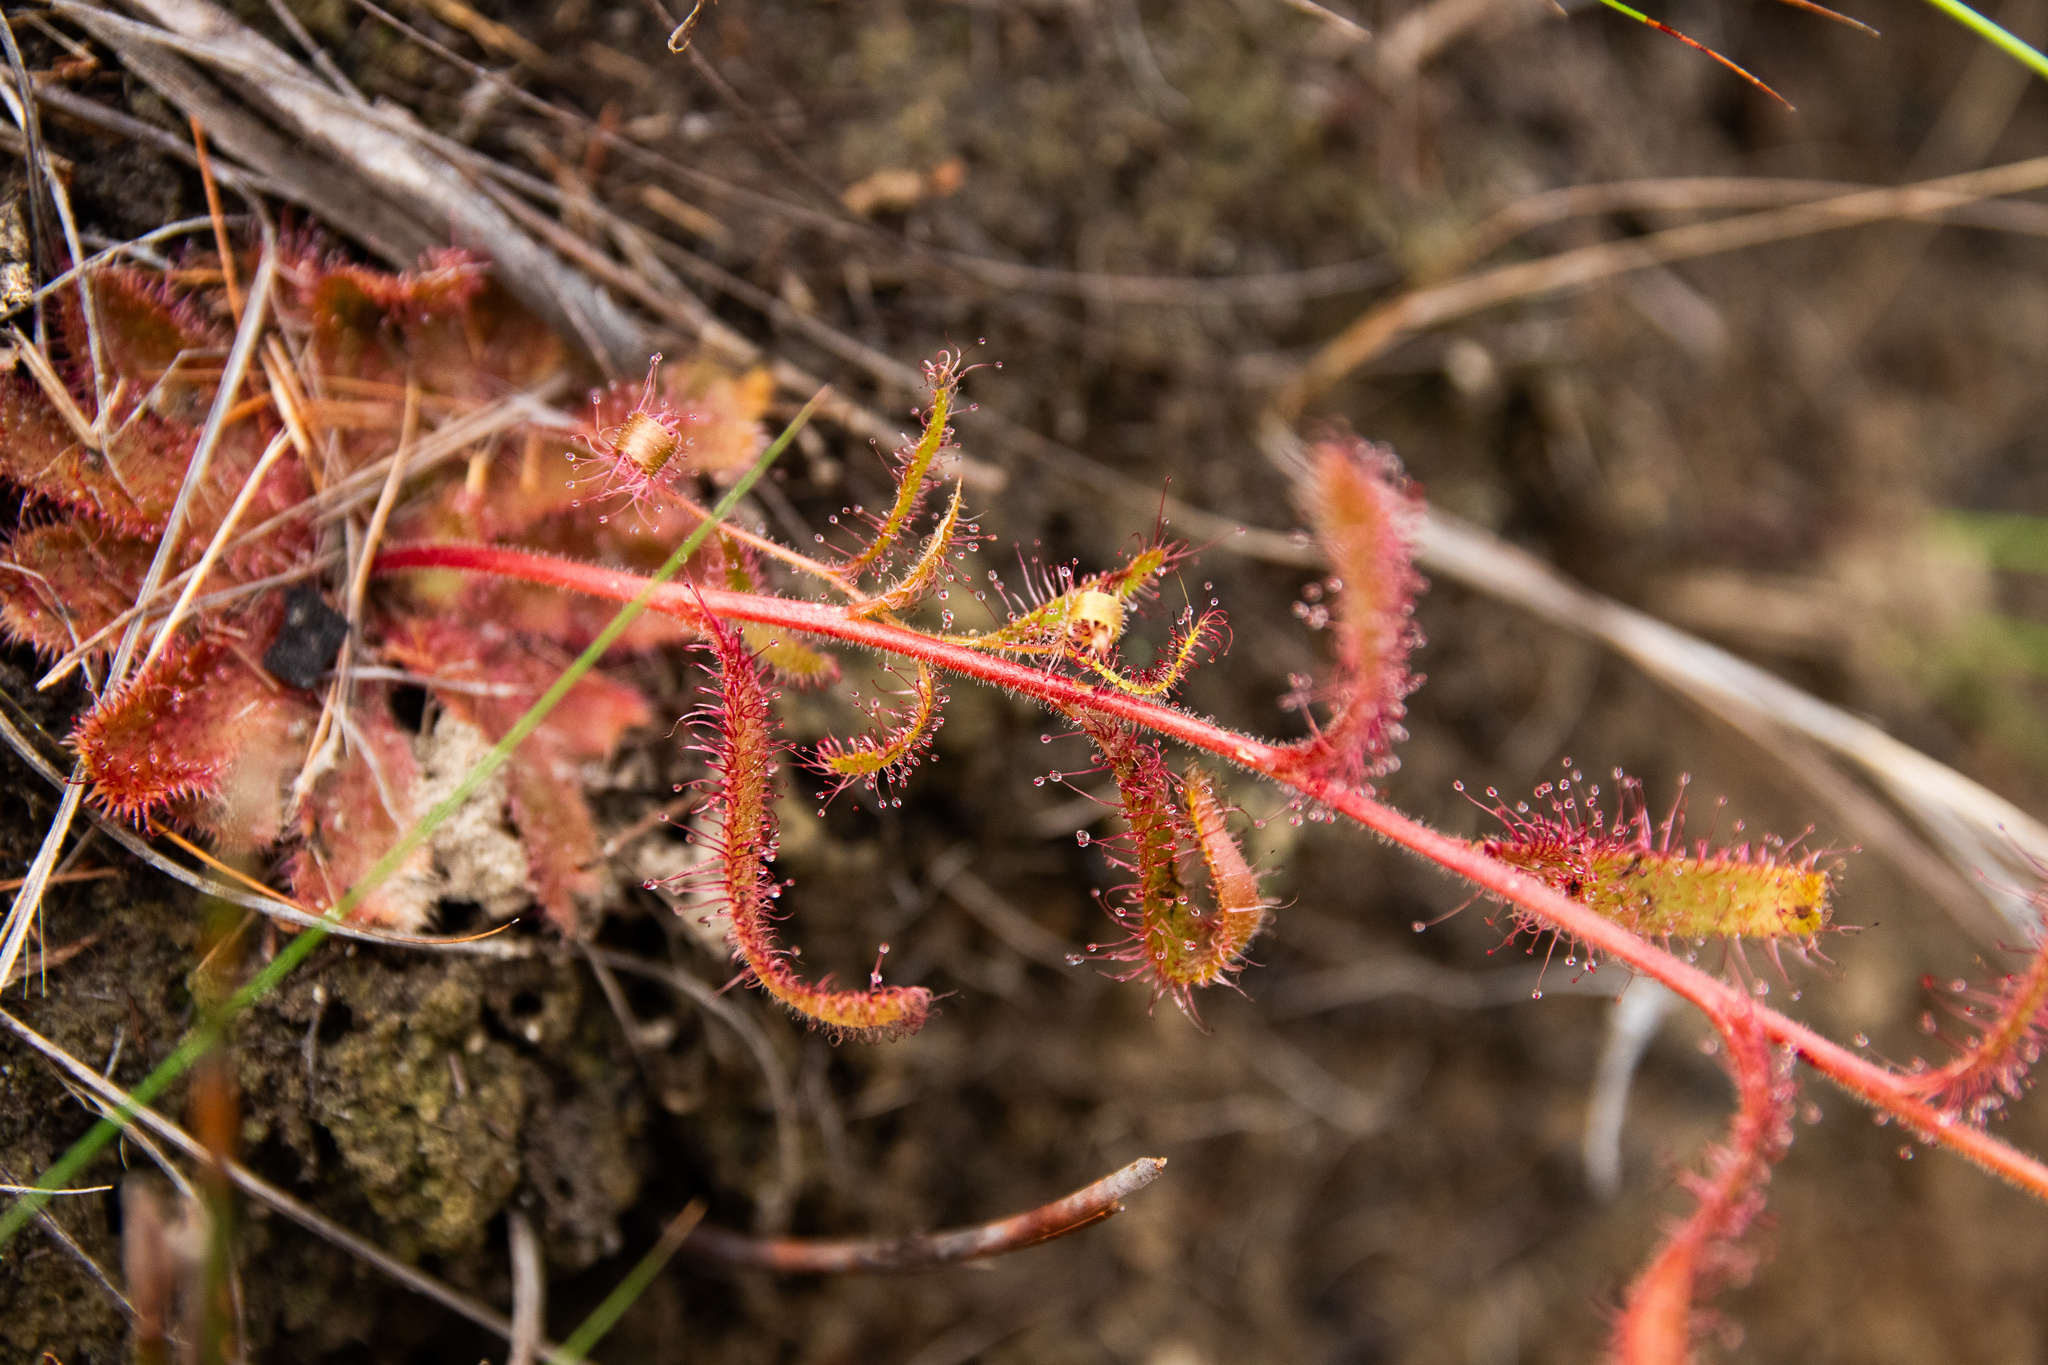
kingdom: Plantae
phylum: Tracheophyta
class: Magnoliopsida
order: Caryophyllales
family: Droseraceae
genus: Drosera
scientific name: Drosera cistiflora
